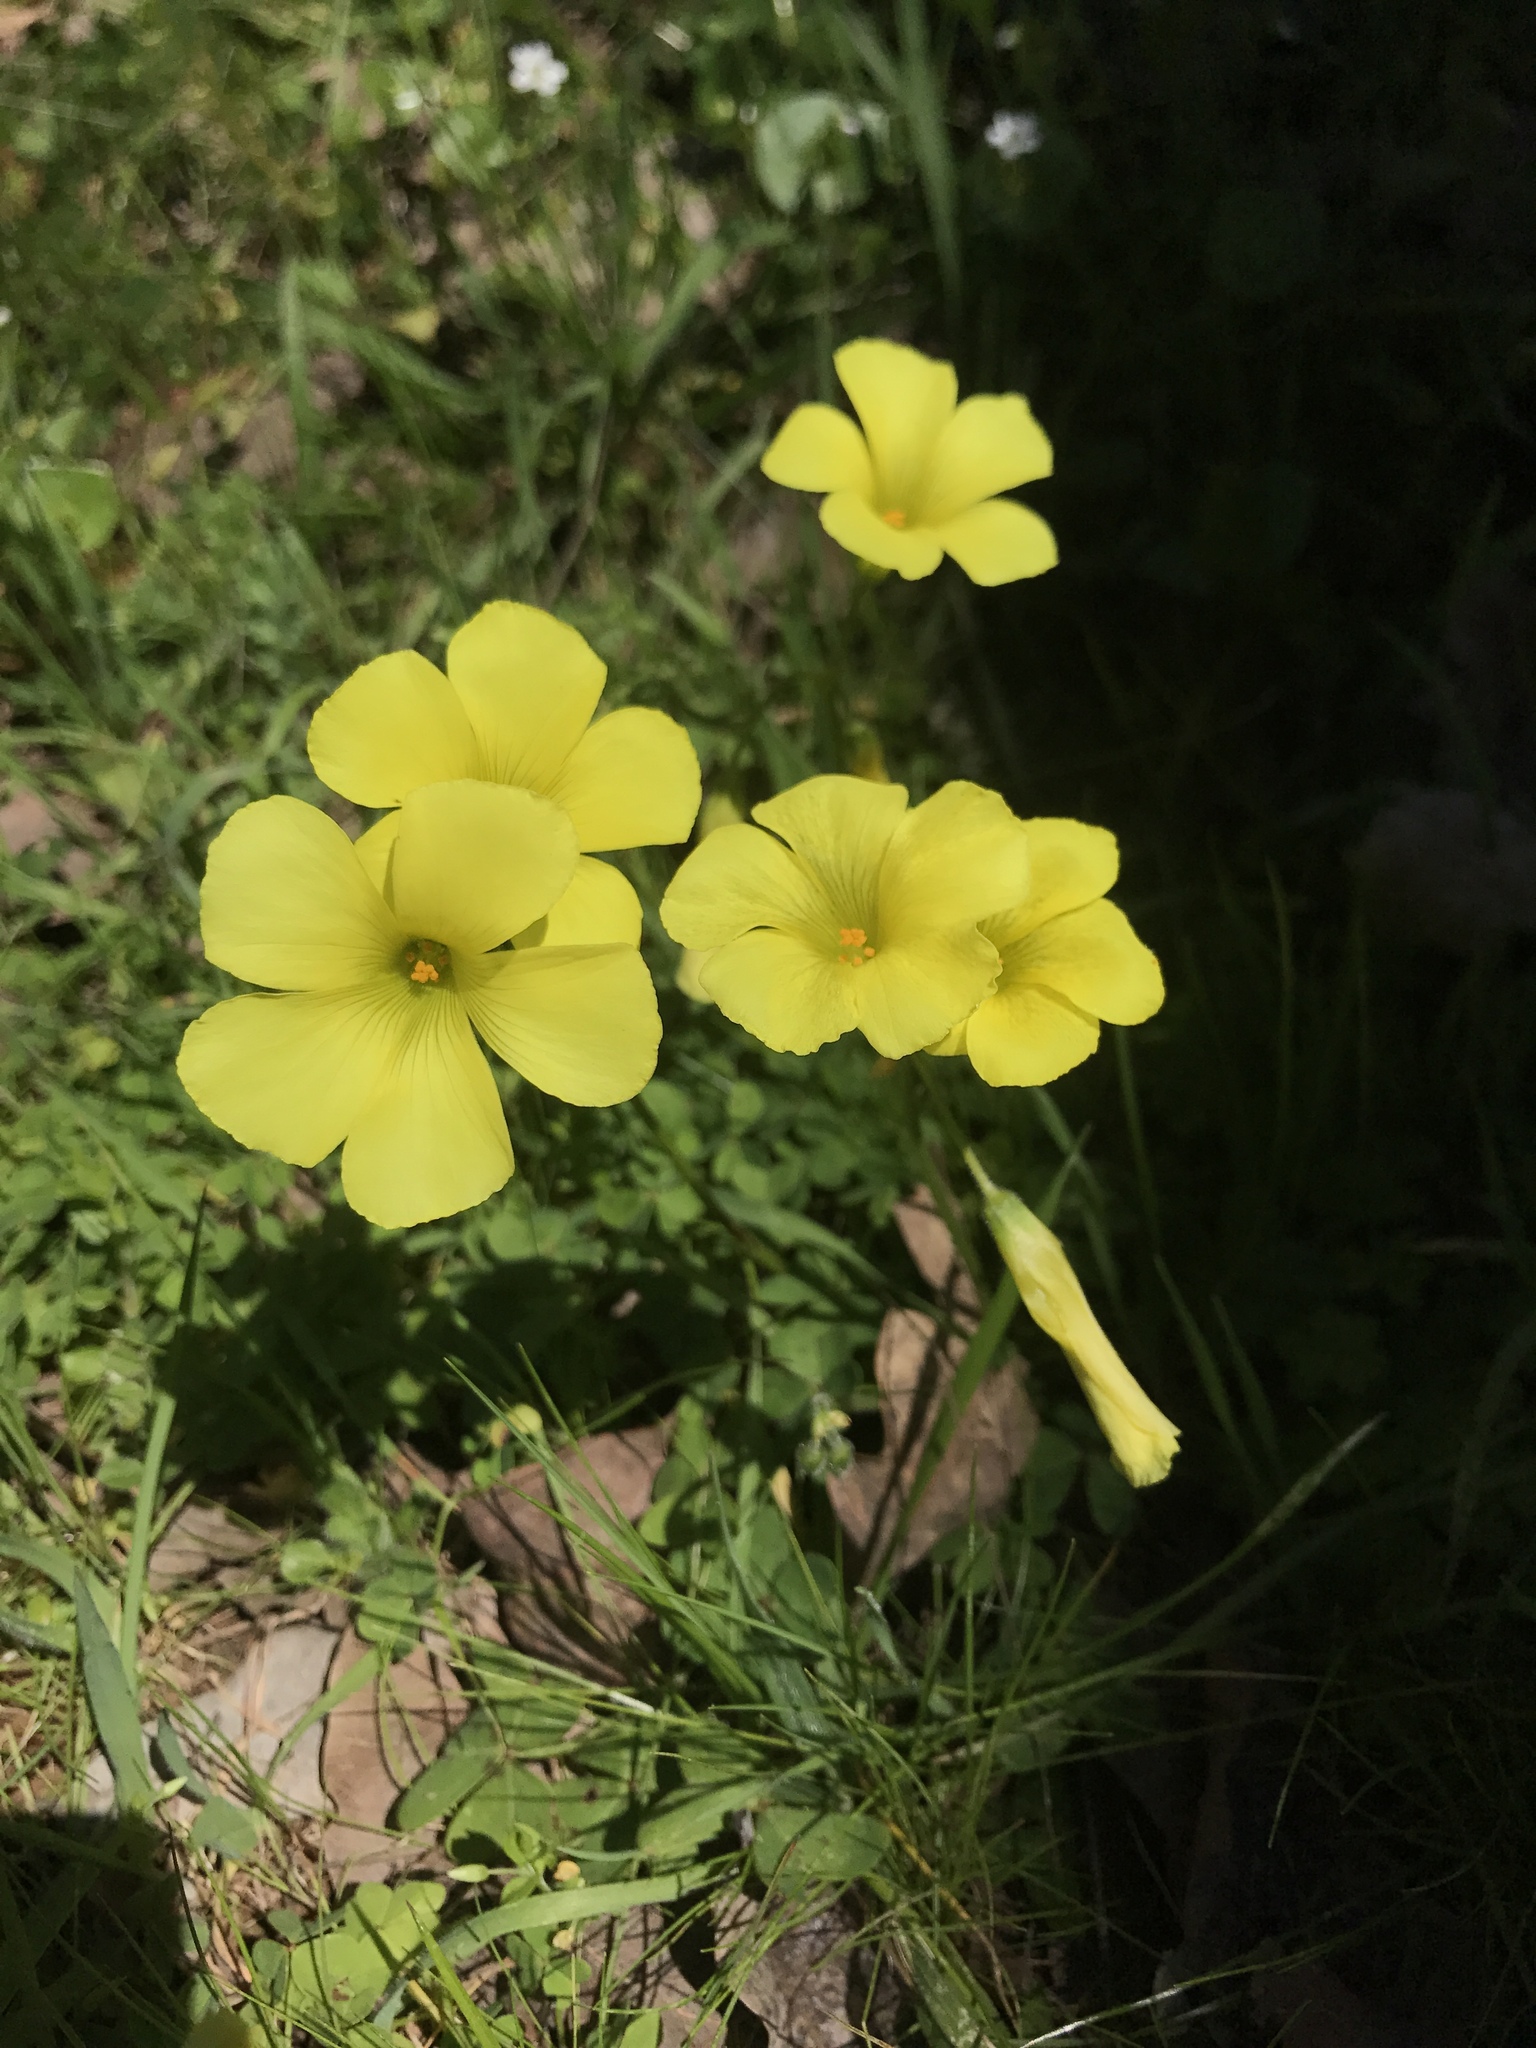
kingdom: Plantae
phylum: Tracheophyta
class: Magnoliopsida
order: Oxalidales
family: Oxalidaceae
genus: Oxalis
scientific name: Oxalis pes-caprae
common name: Bermuda-buttercup
